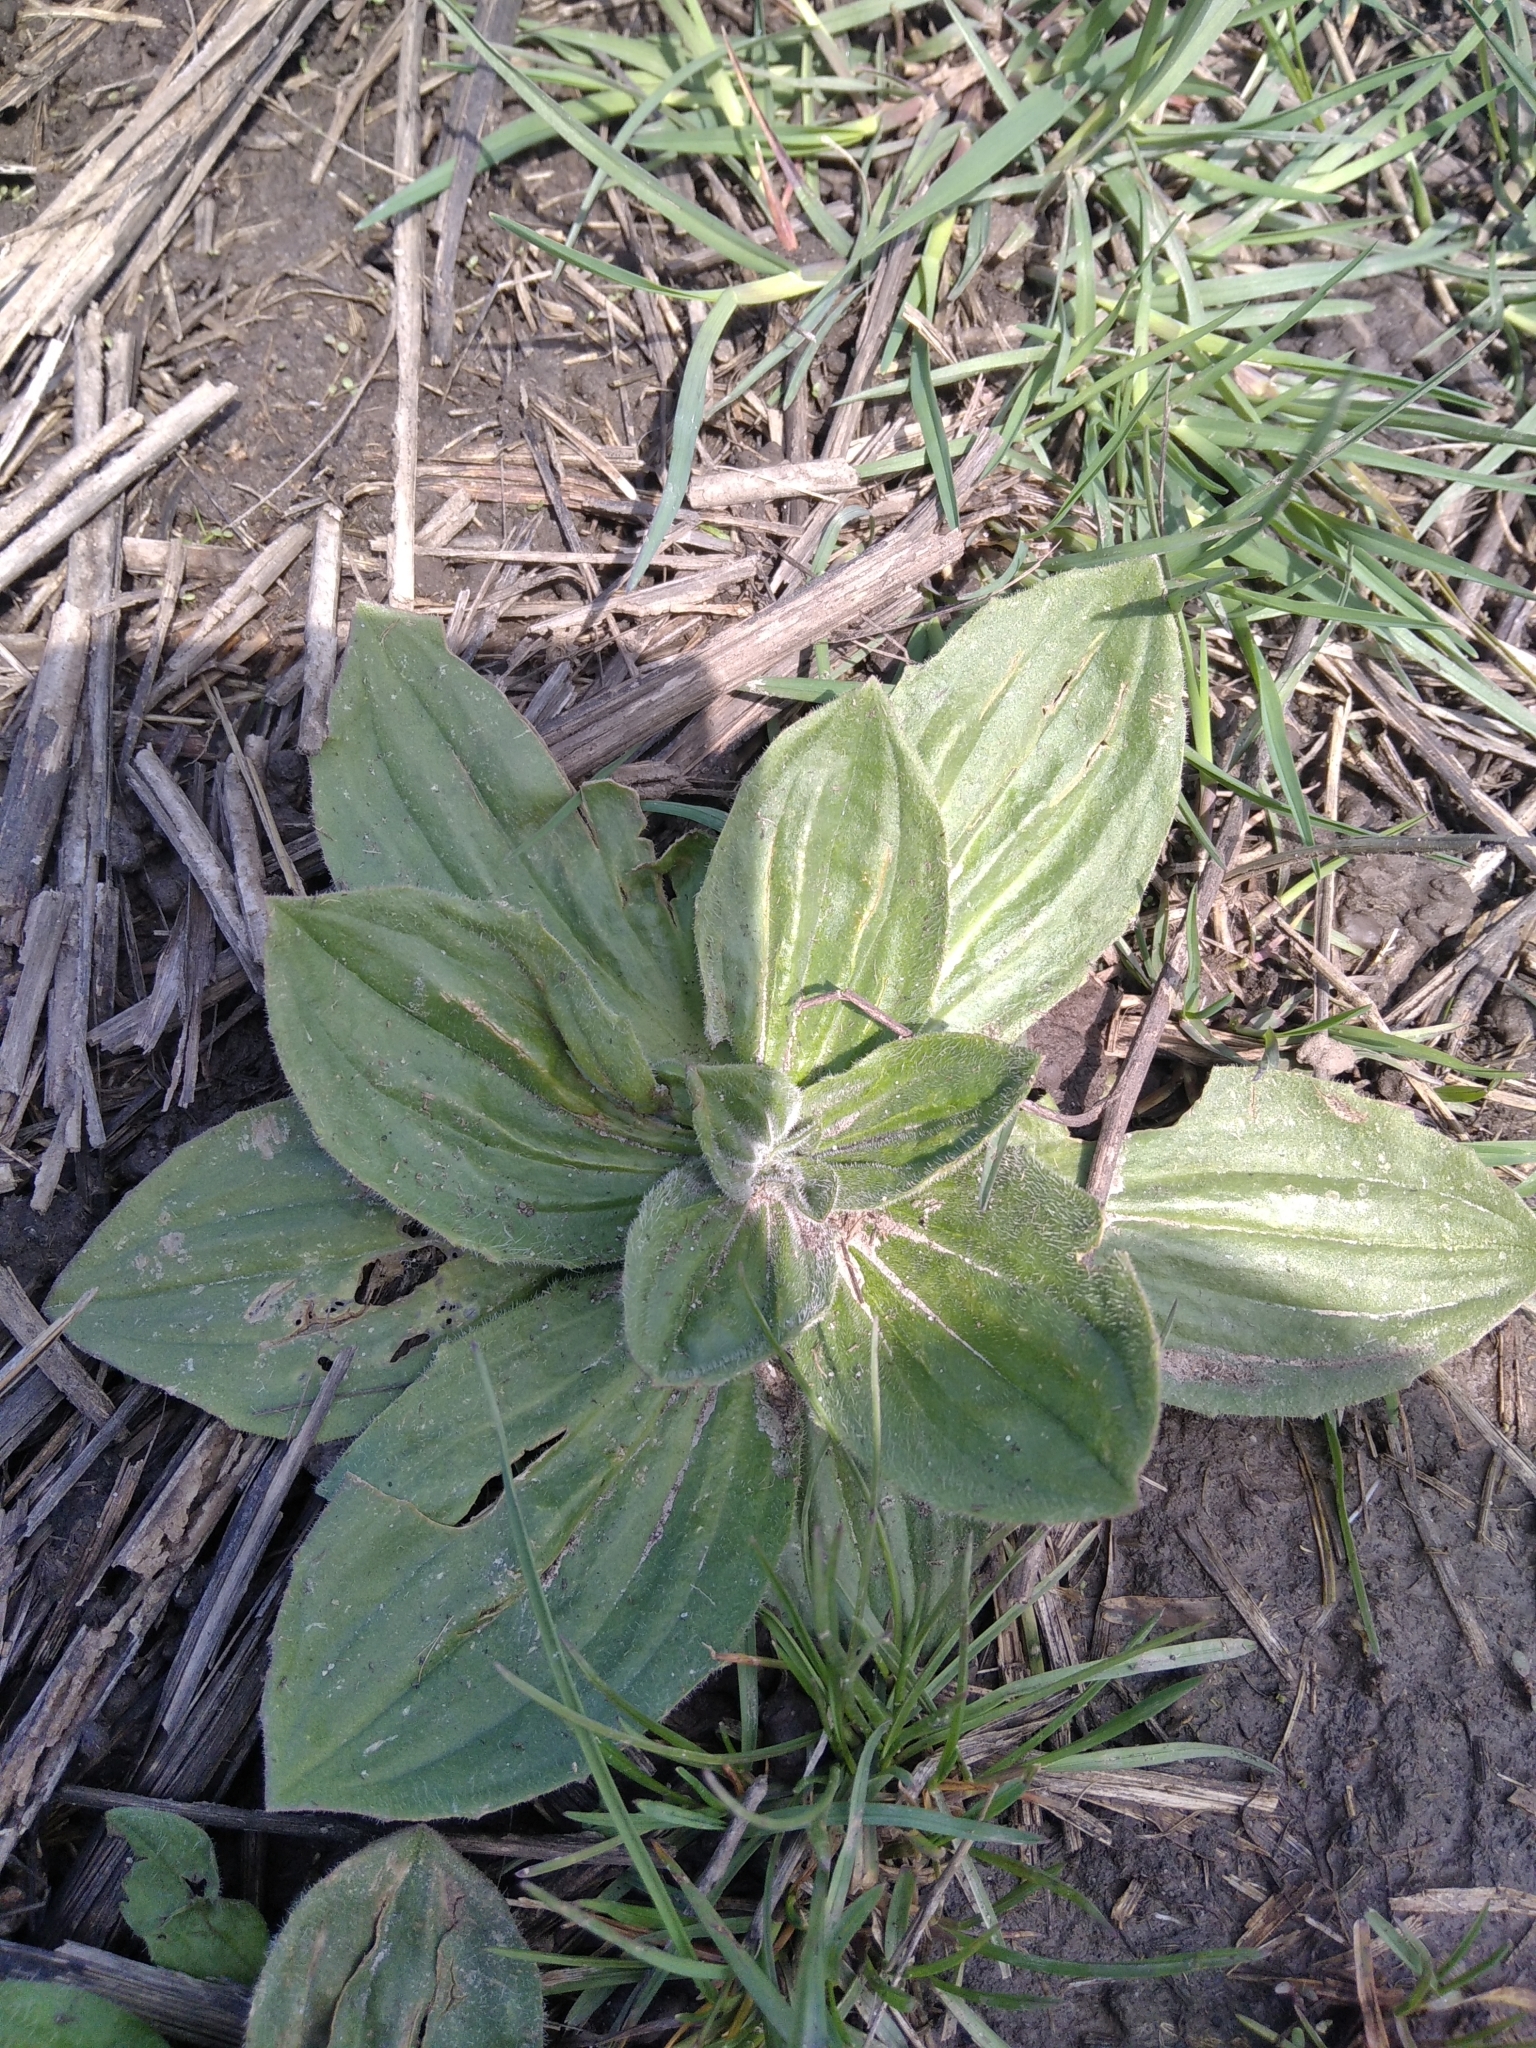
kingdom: Plantae
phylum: Tracheophyta
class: Magnoliopsida
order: Lamiales
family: Plantaginaceae
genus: Plantago
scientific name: Plantago media
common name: Hoary plantain
